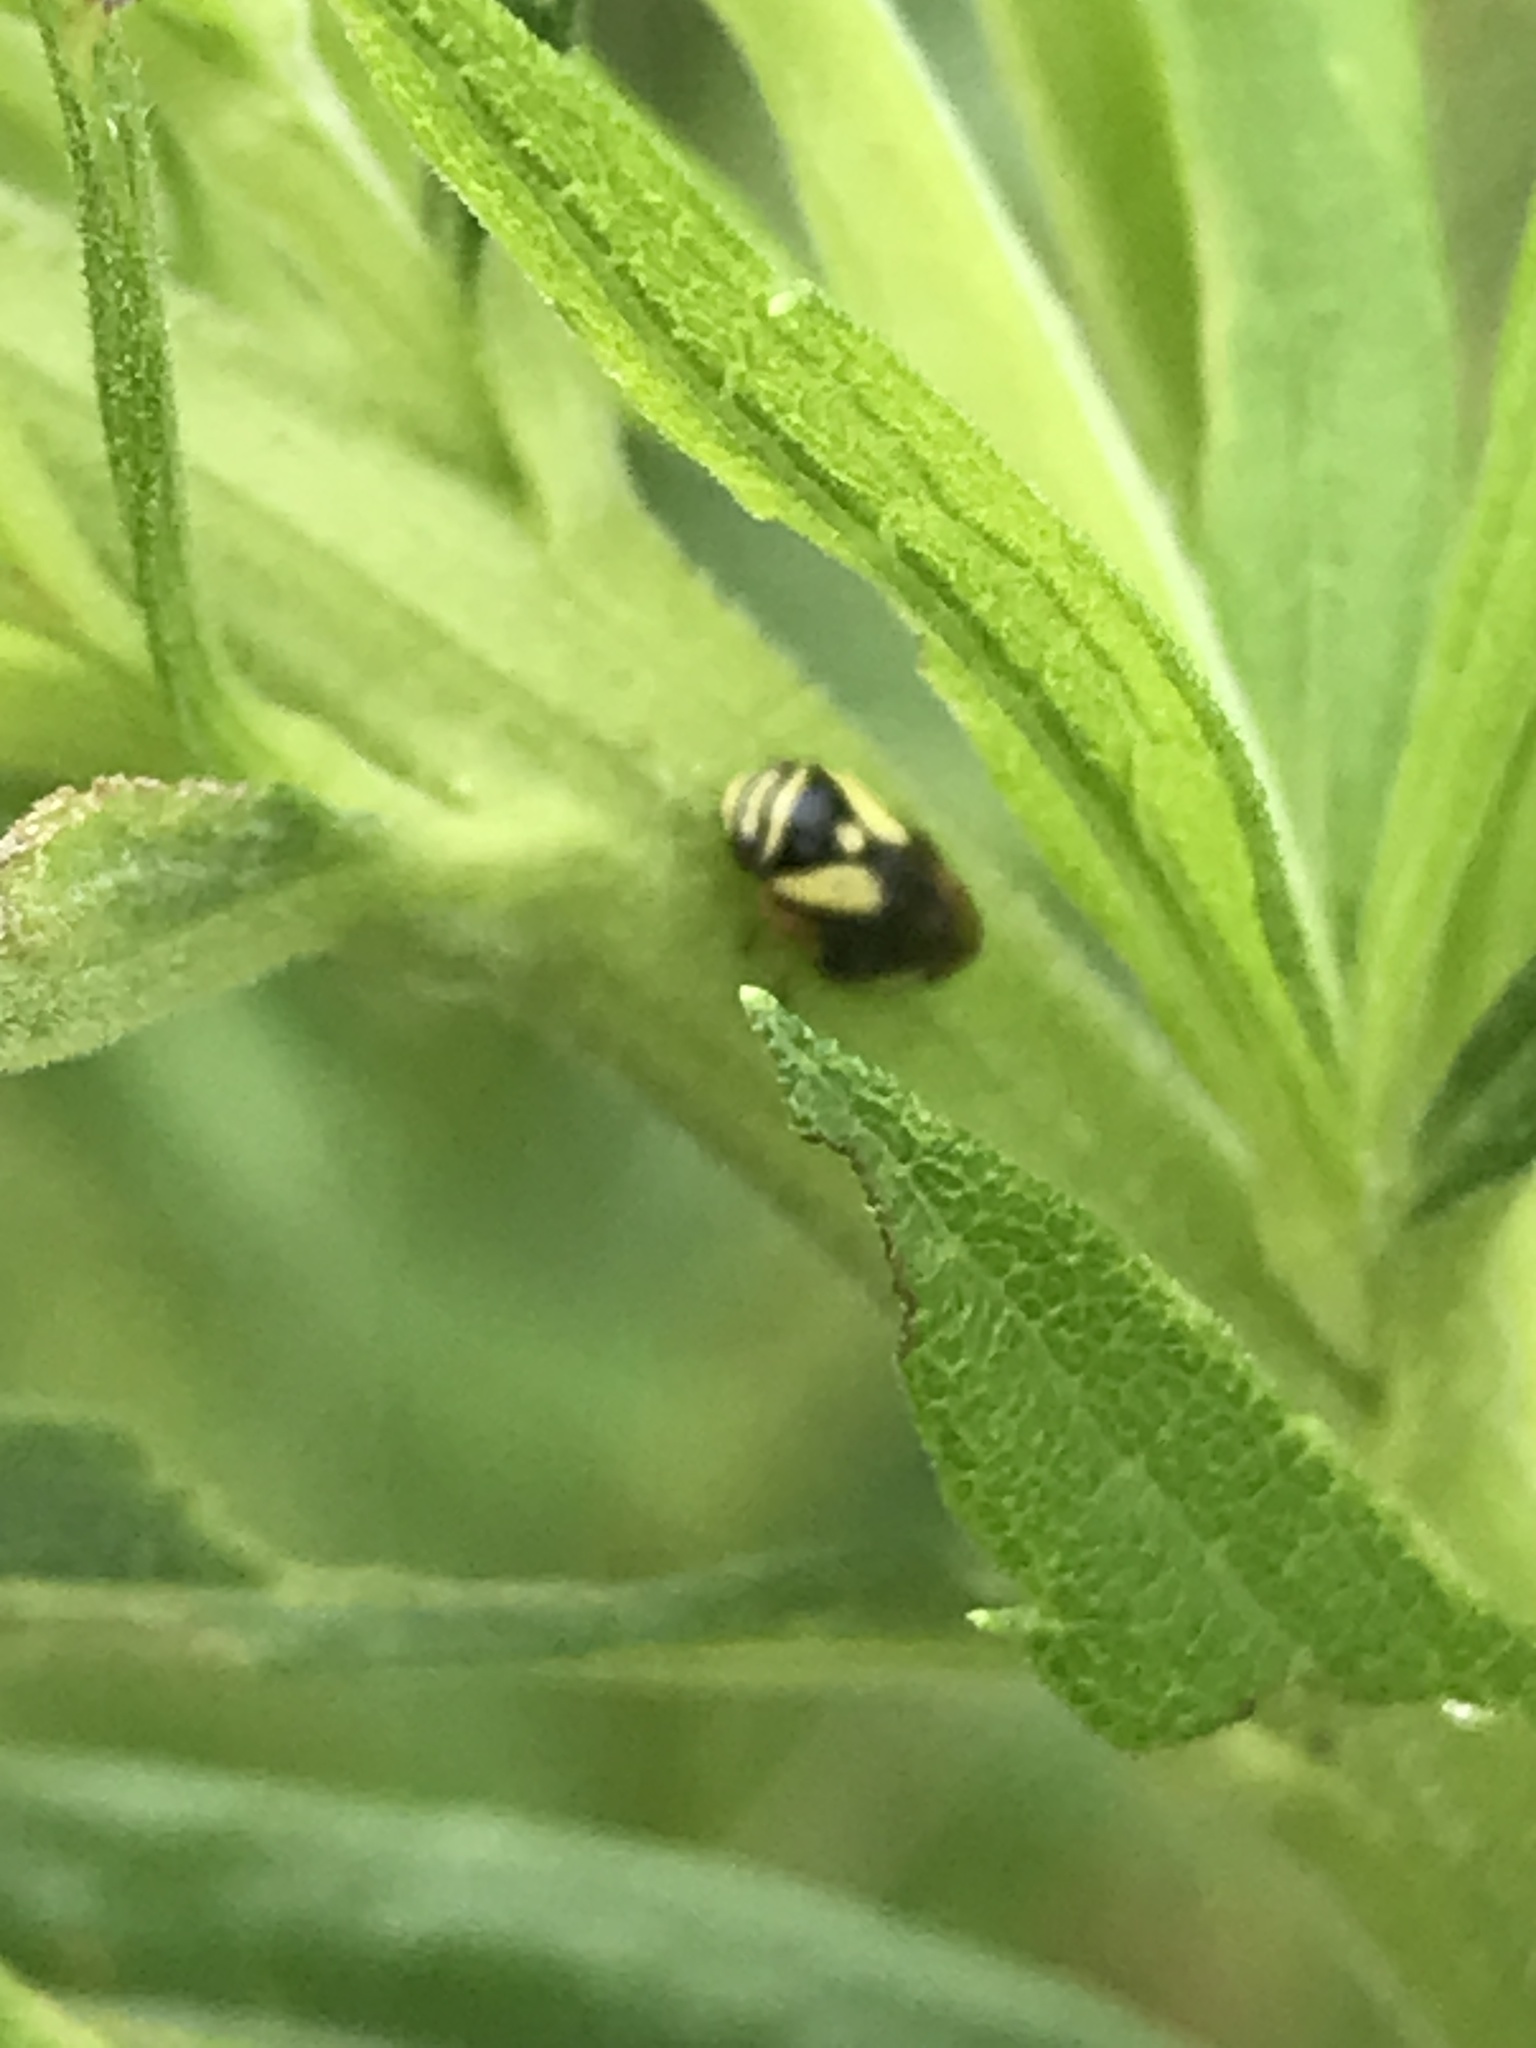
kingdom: Animalia
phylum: Arthropoda
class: Insecta
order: Hemiptera
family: Clastopteridae
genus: Clastoptera
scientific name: Clastoptera proteus
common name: Dogwood spittlebug
